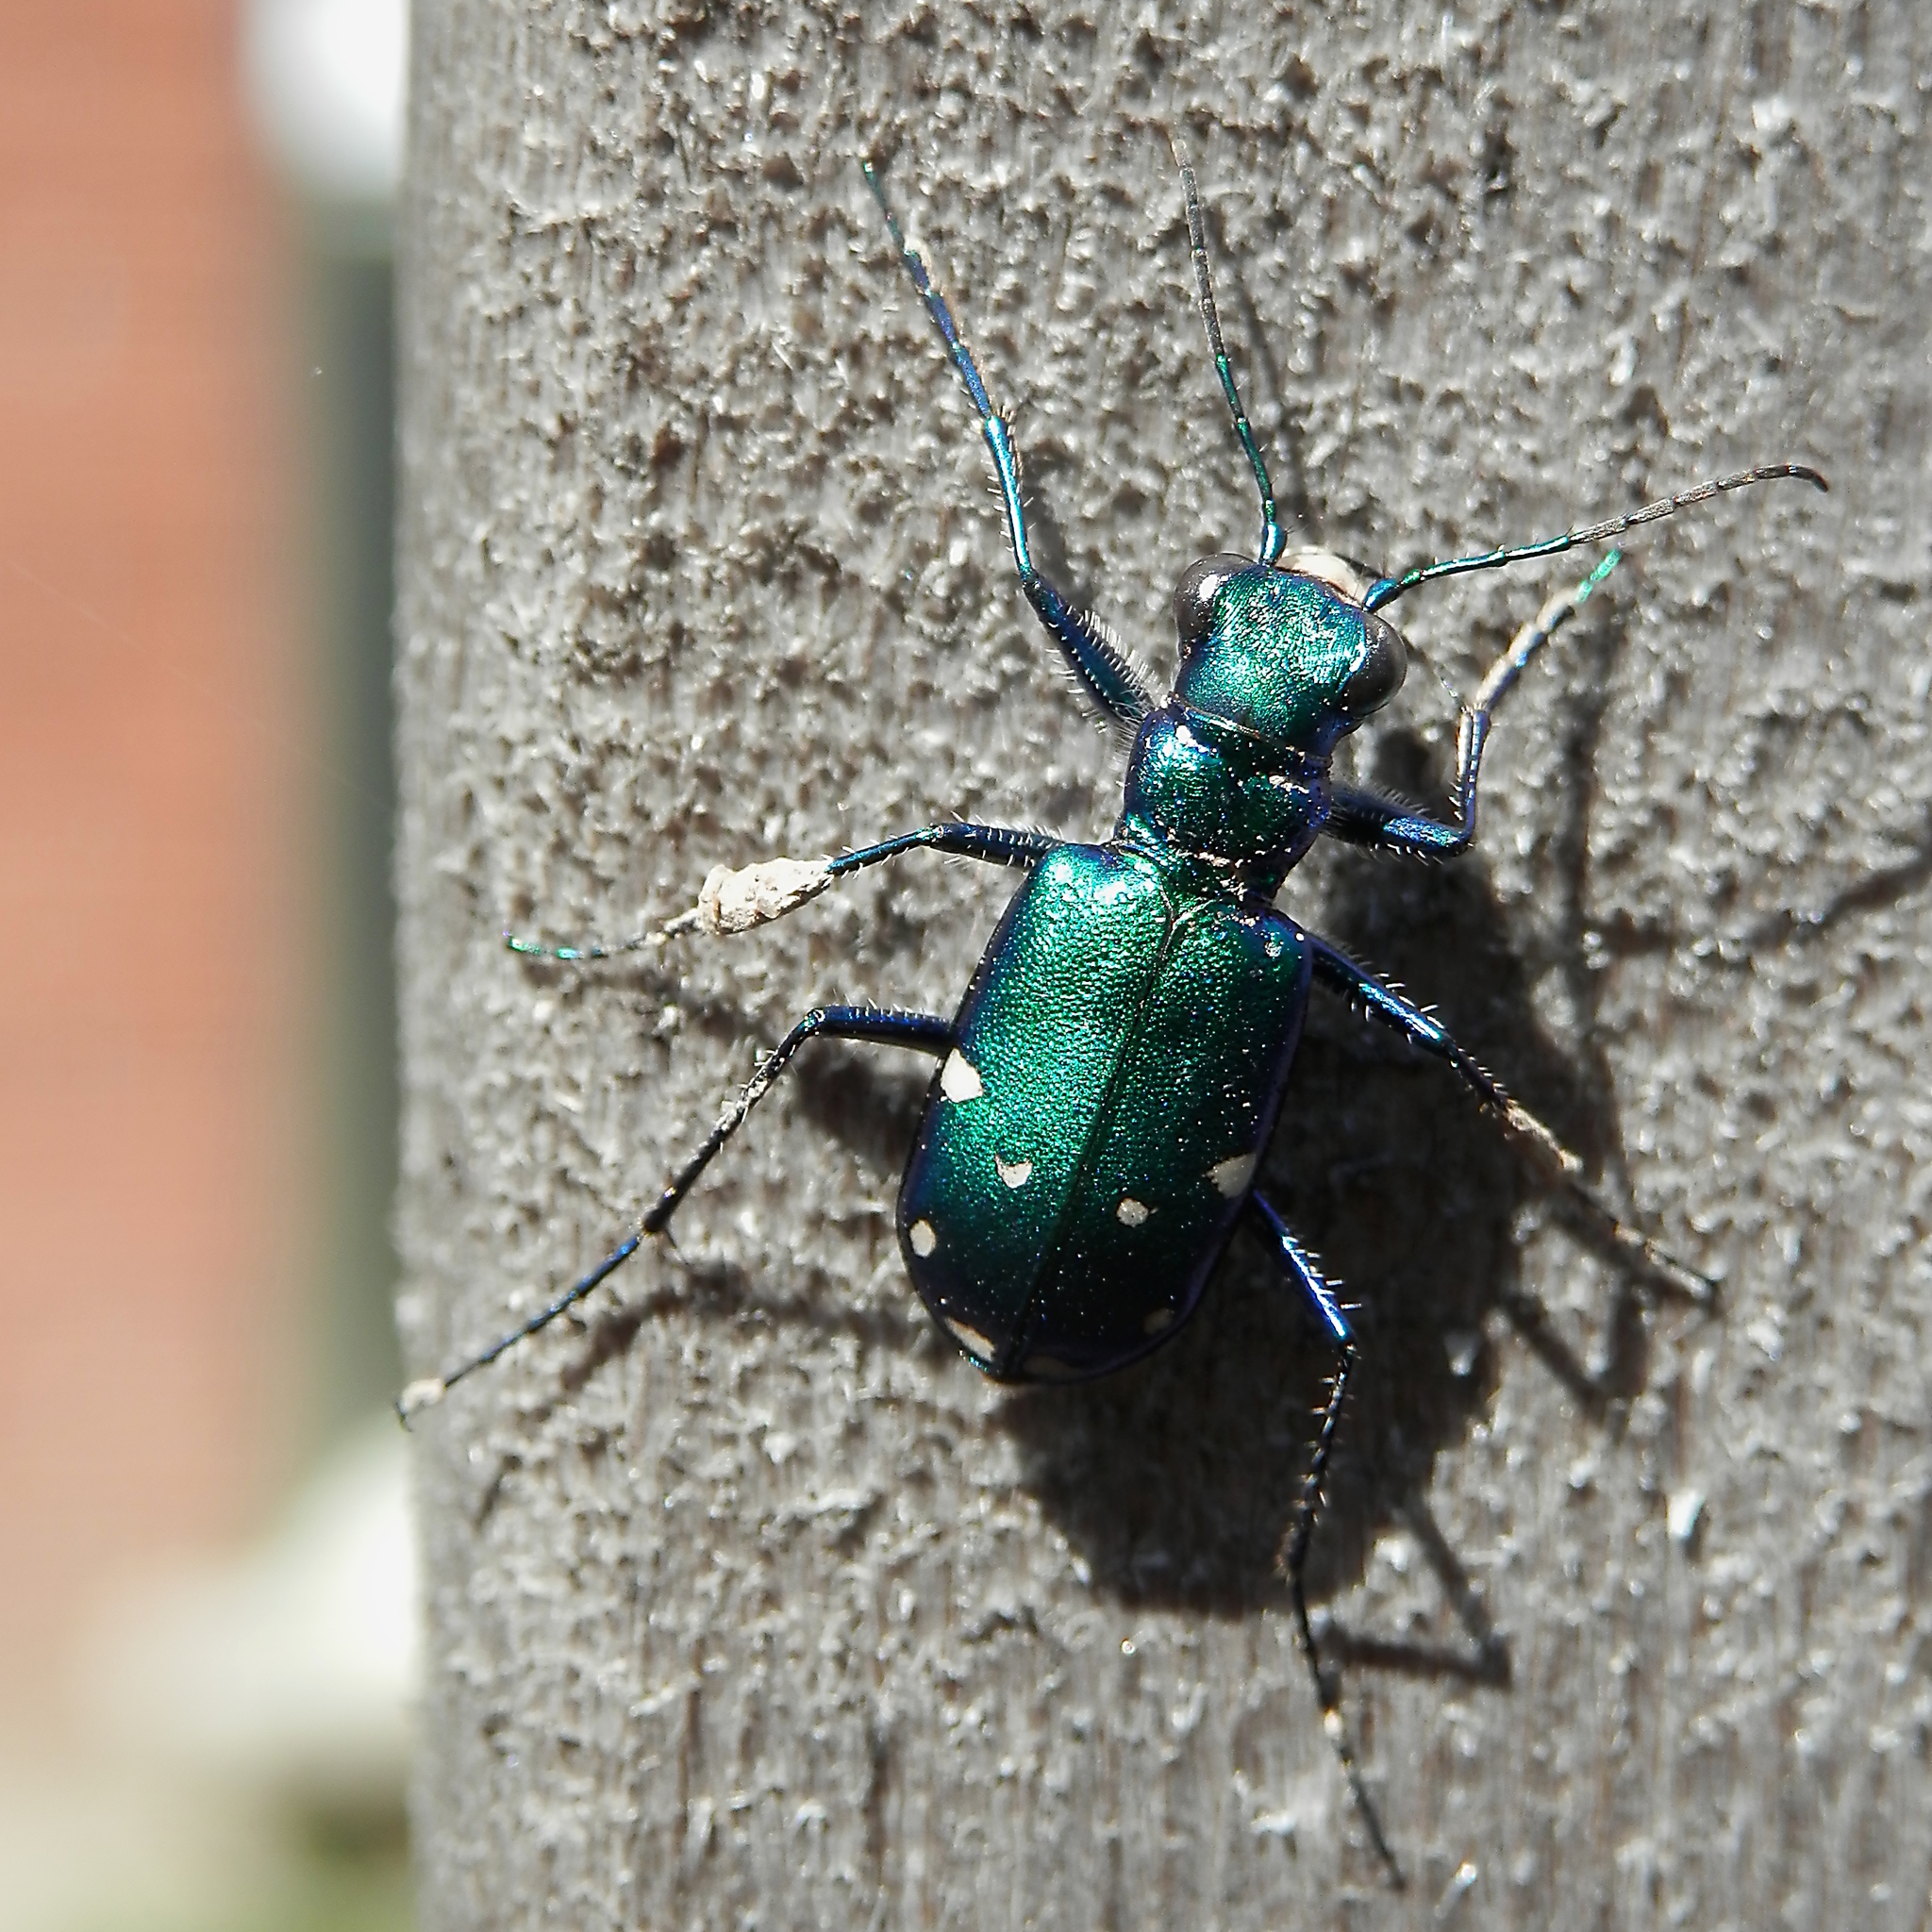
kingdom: Animalia
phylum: Arthropoda
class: Insecta
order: Coleoptera
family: Carabidae
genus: Cicindela
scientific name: Cicindela sexguttata
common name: Six-spotted tiger beetle
